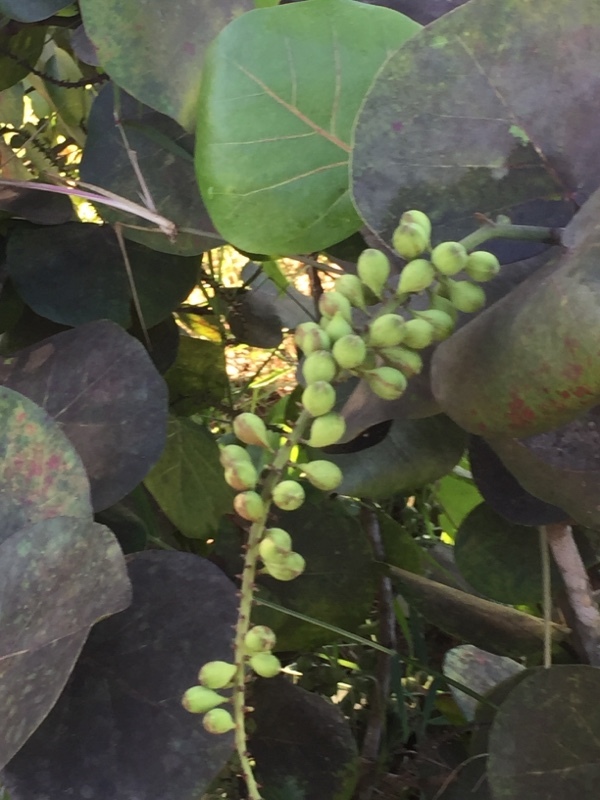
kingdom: Plantae
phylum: Tracheophyta
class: Magnoliopsida
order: Caryophyllales
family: Polygonaceae
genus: Coccoloba
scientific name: Coccoloba uvifera
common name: Seagrape
